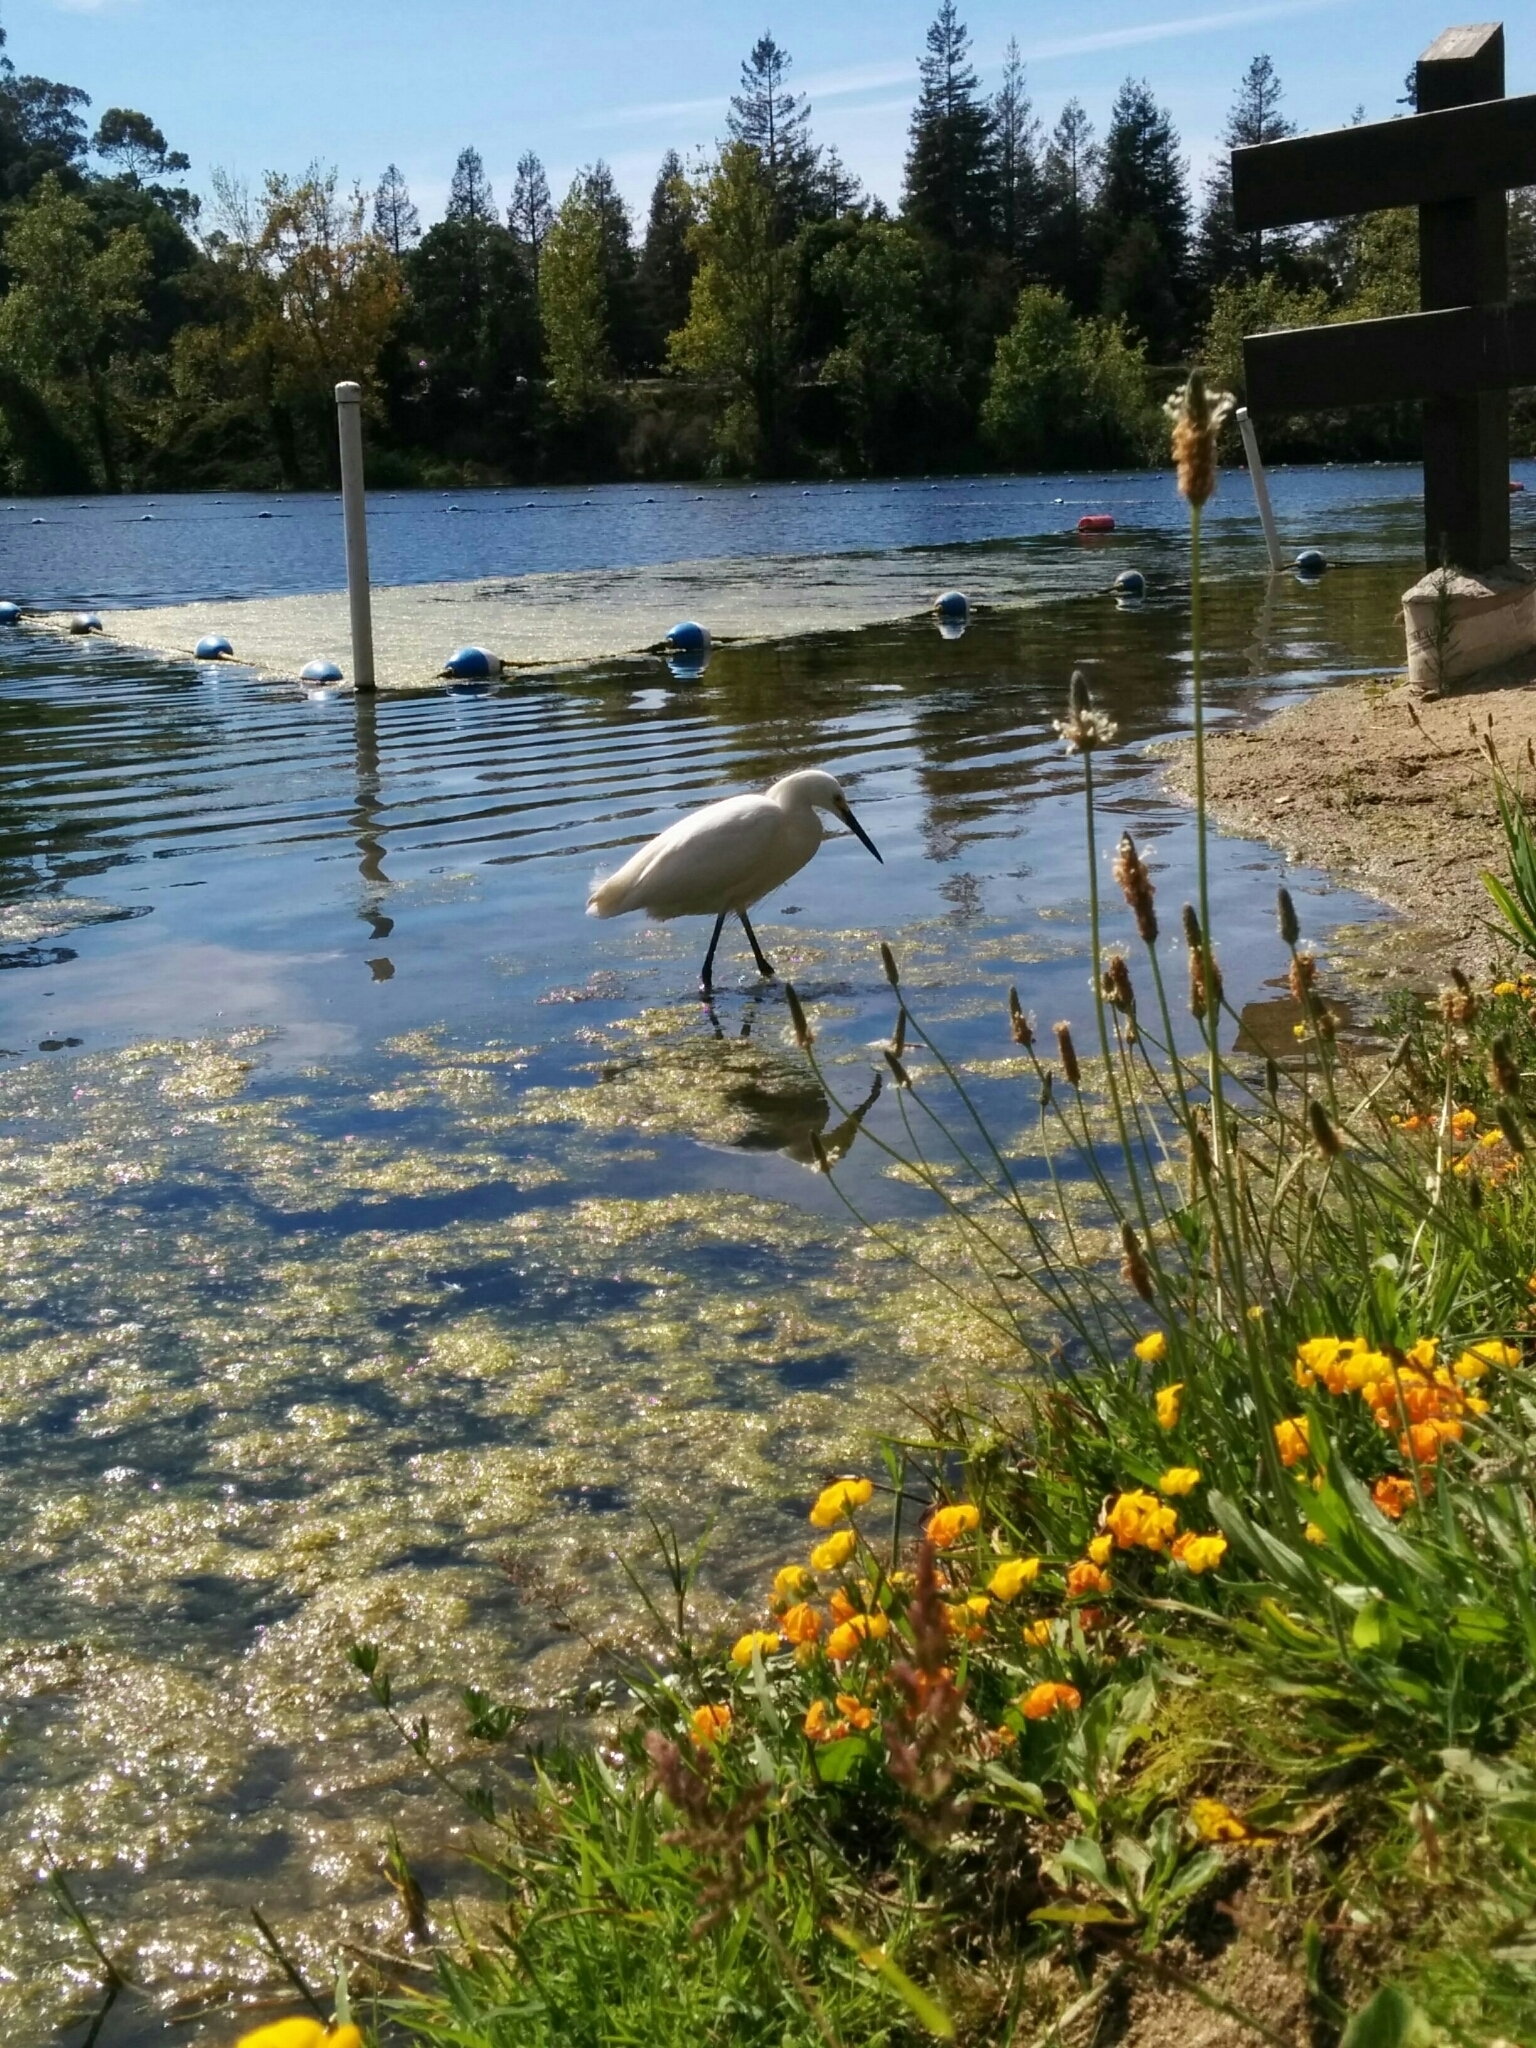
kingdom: Animalia
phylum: Chordata
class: Aves
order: Pelecaniformes
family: Ardeidae
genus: Egretta
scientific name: Egretta thula
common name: Snowy egret
